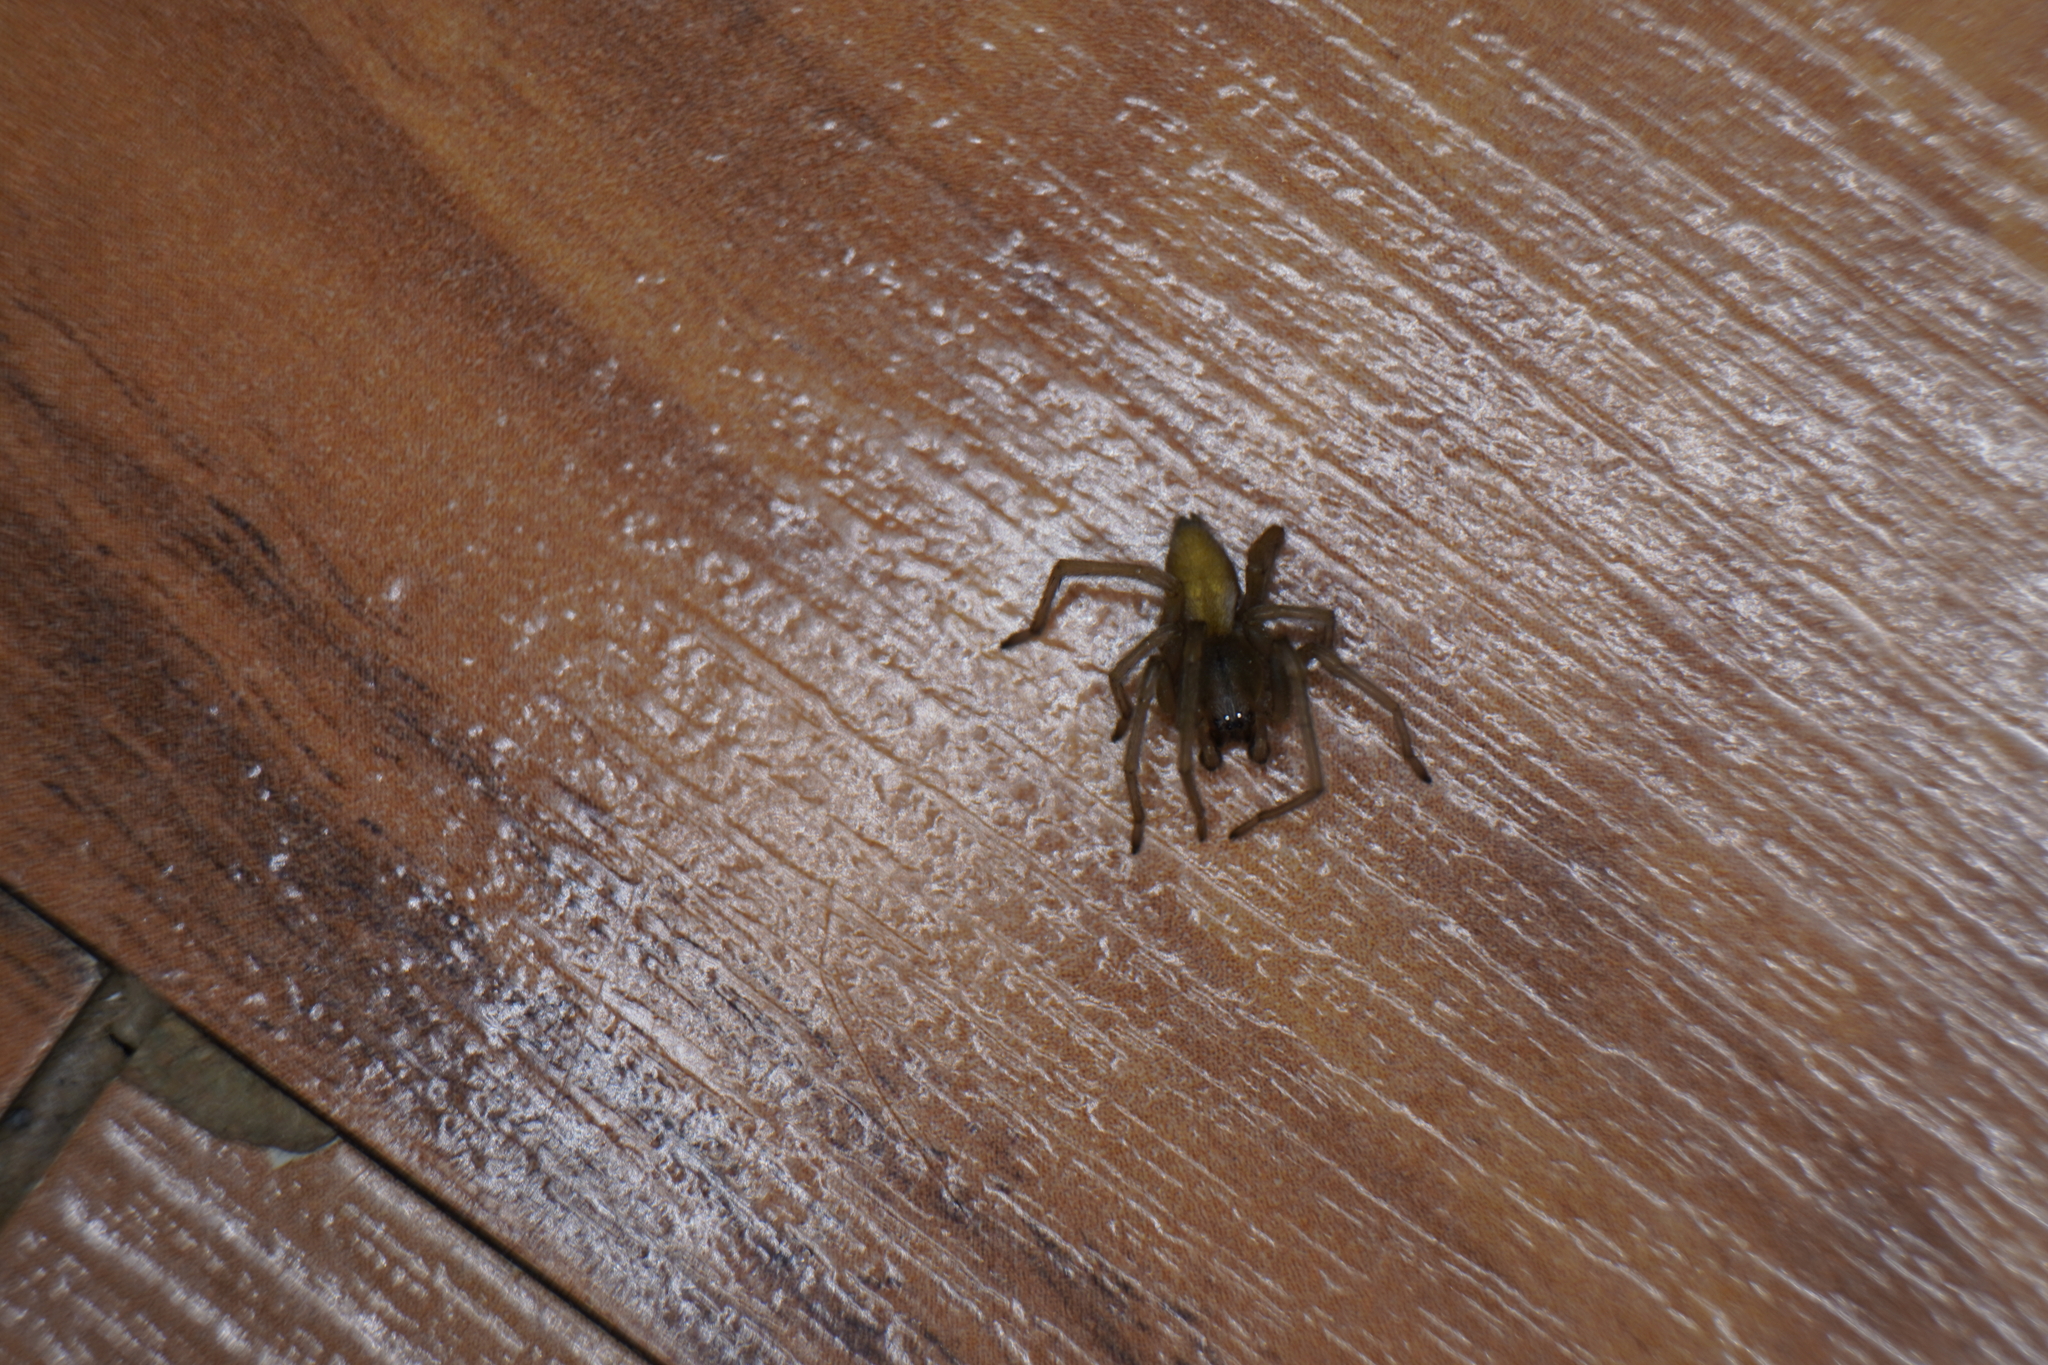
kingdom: Animalia
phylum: Arthropoda
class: Arachnida
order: Araneae
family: Cheiracanthiidae
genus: Cheiracanthium
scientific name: Cheiracanthium
